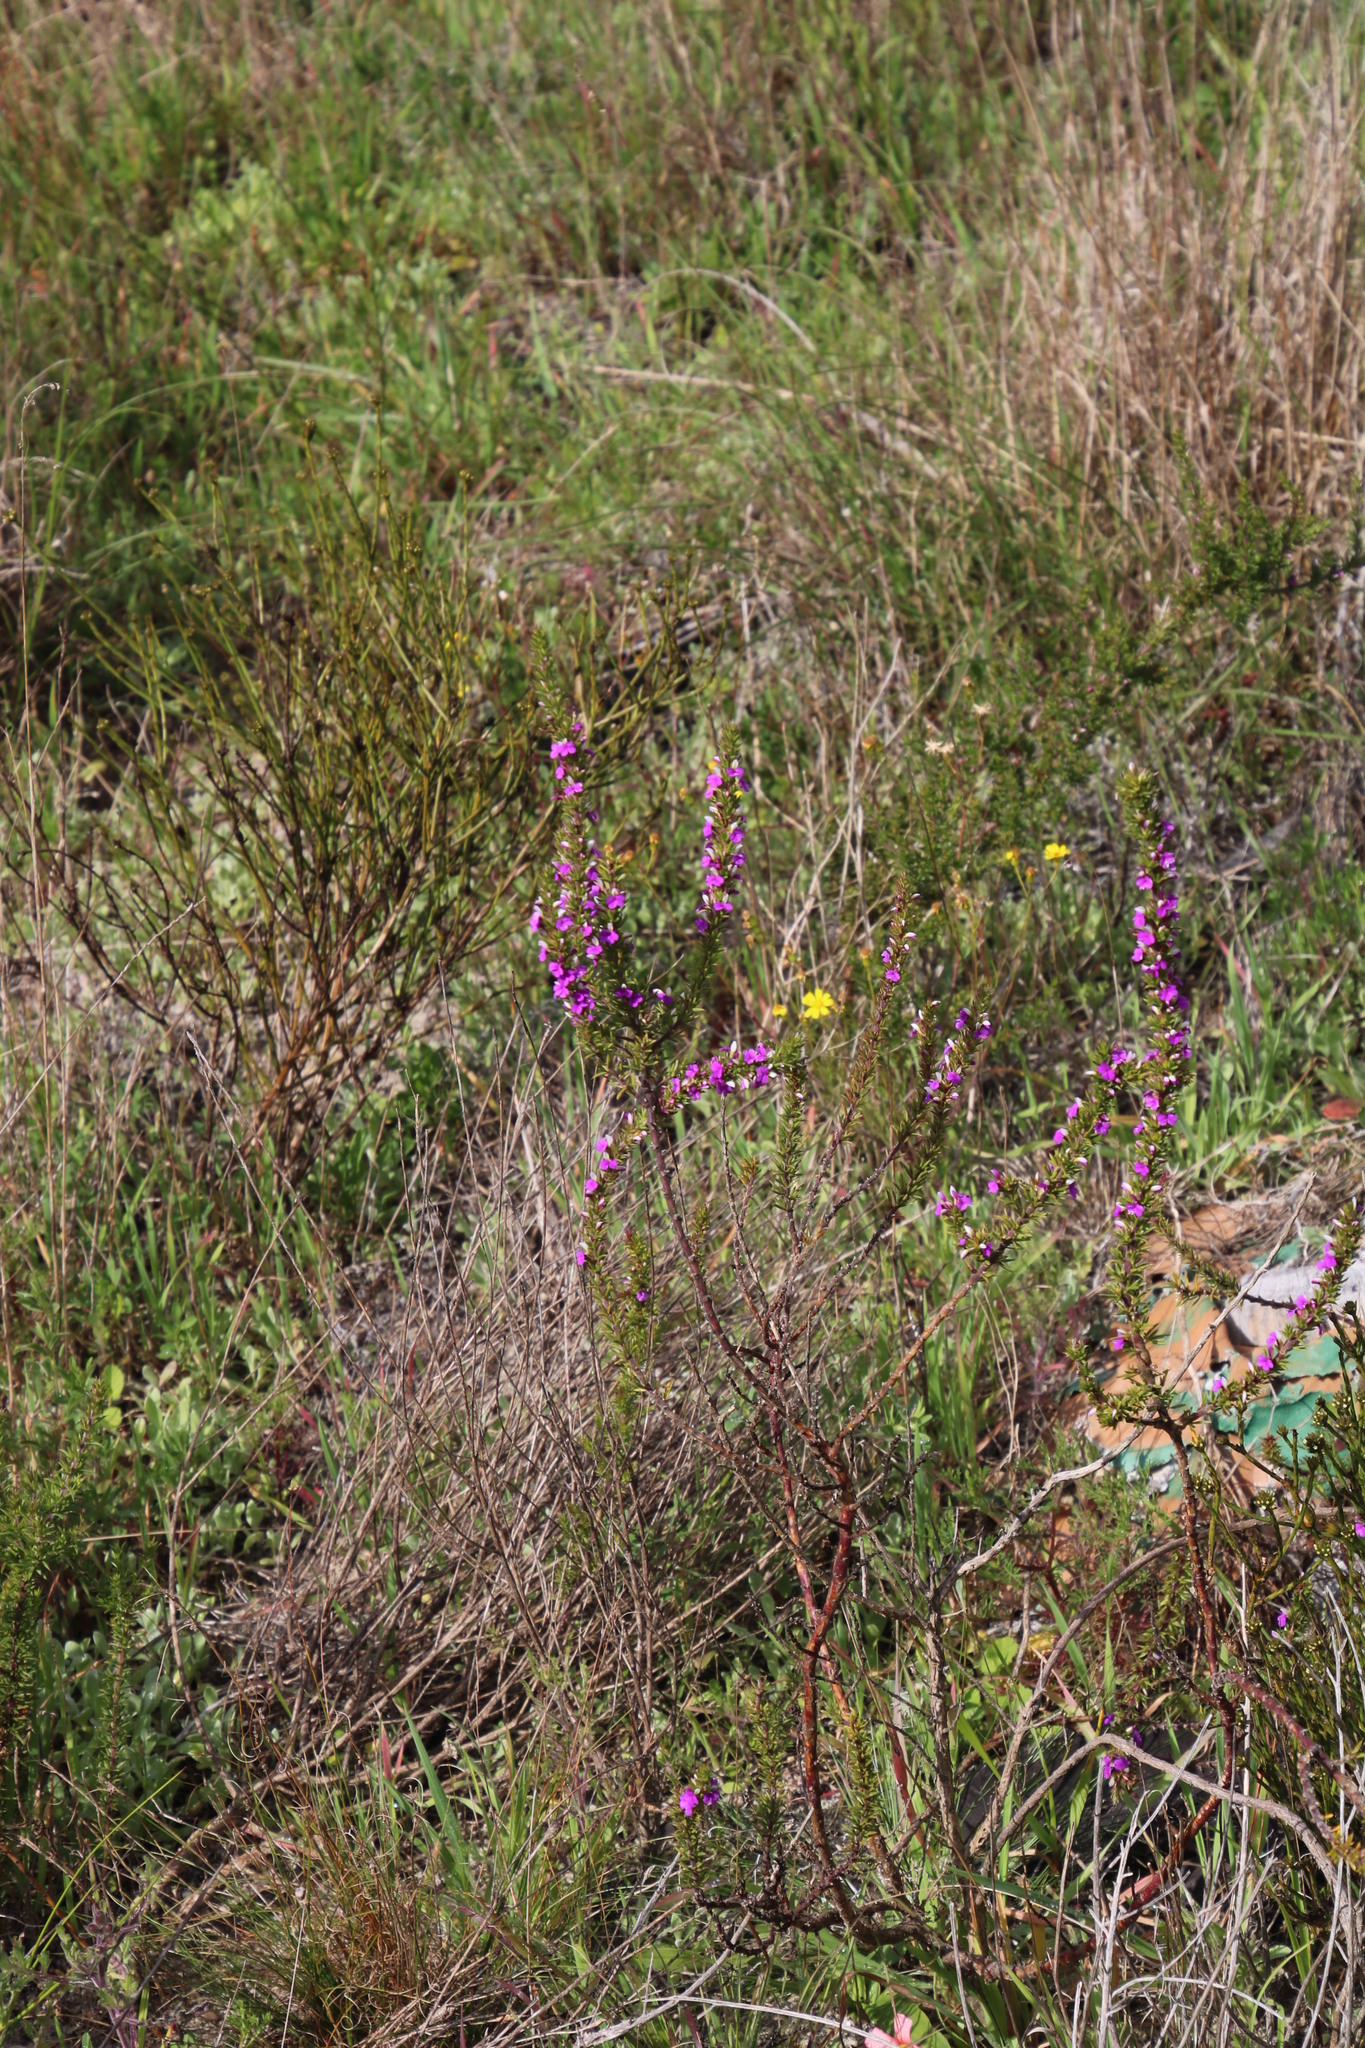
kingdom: Plantae
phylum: Tracheophyta
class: Magnoliopsida
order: Fabales
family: Polygalaceae
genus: Muraltia
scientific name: Muraltia heisteria
